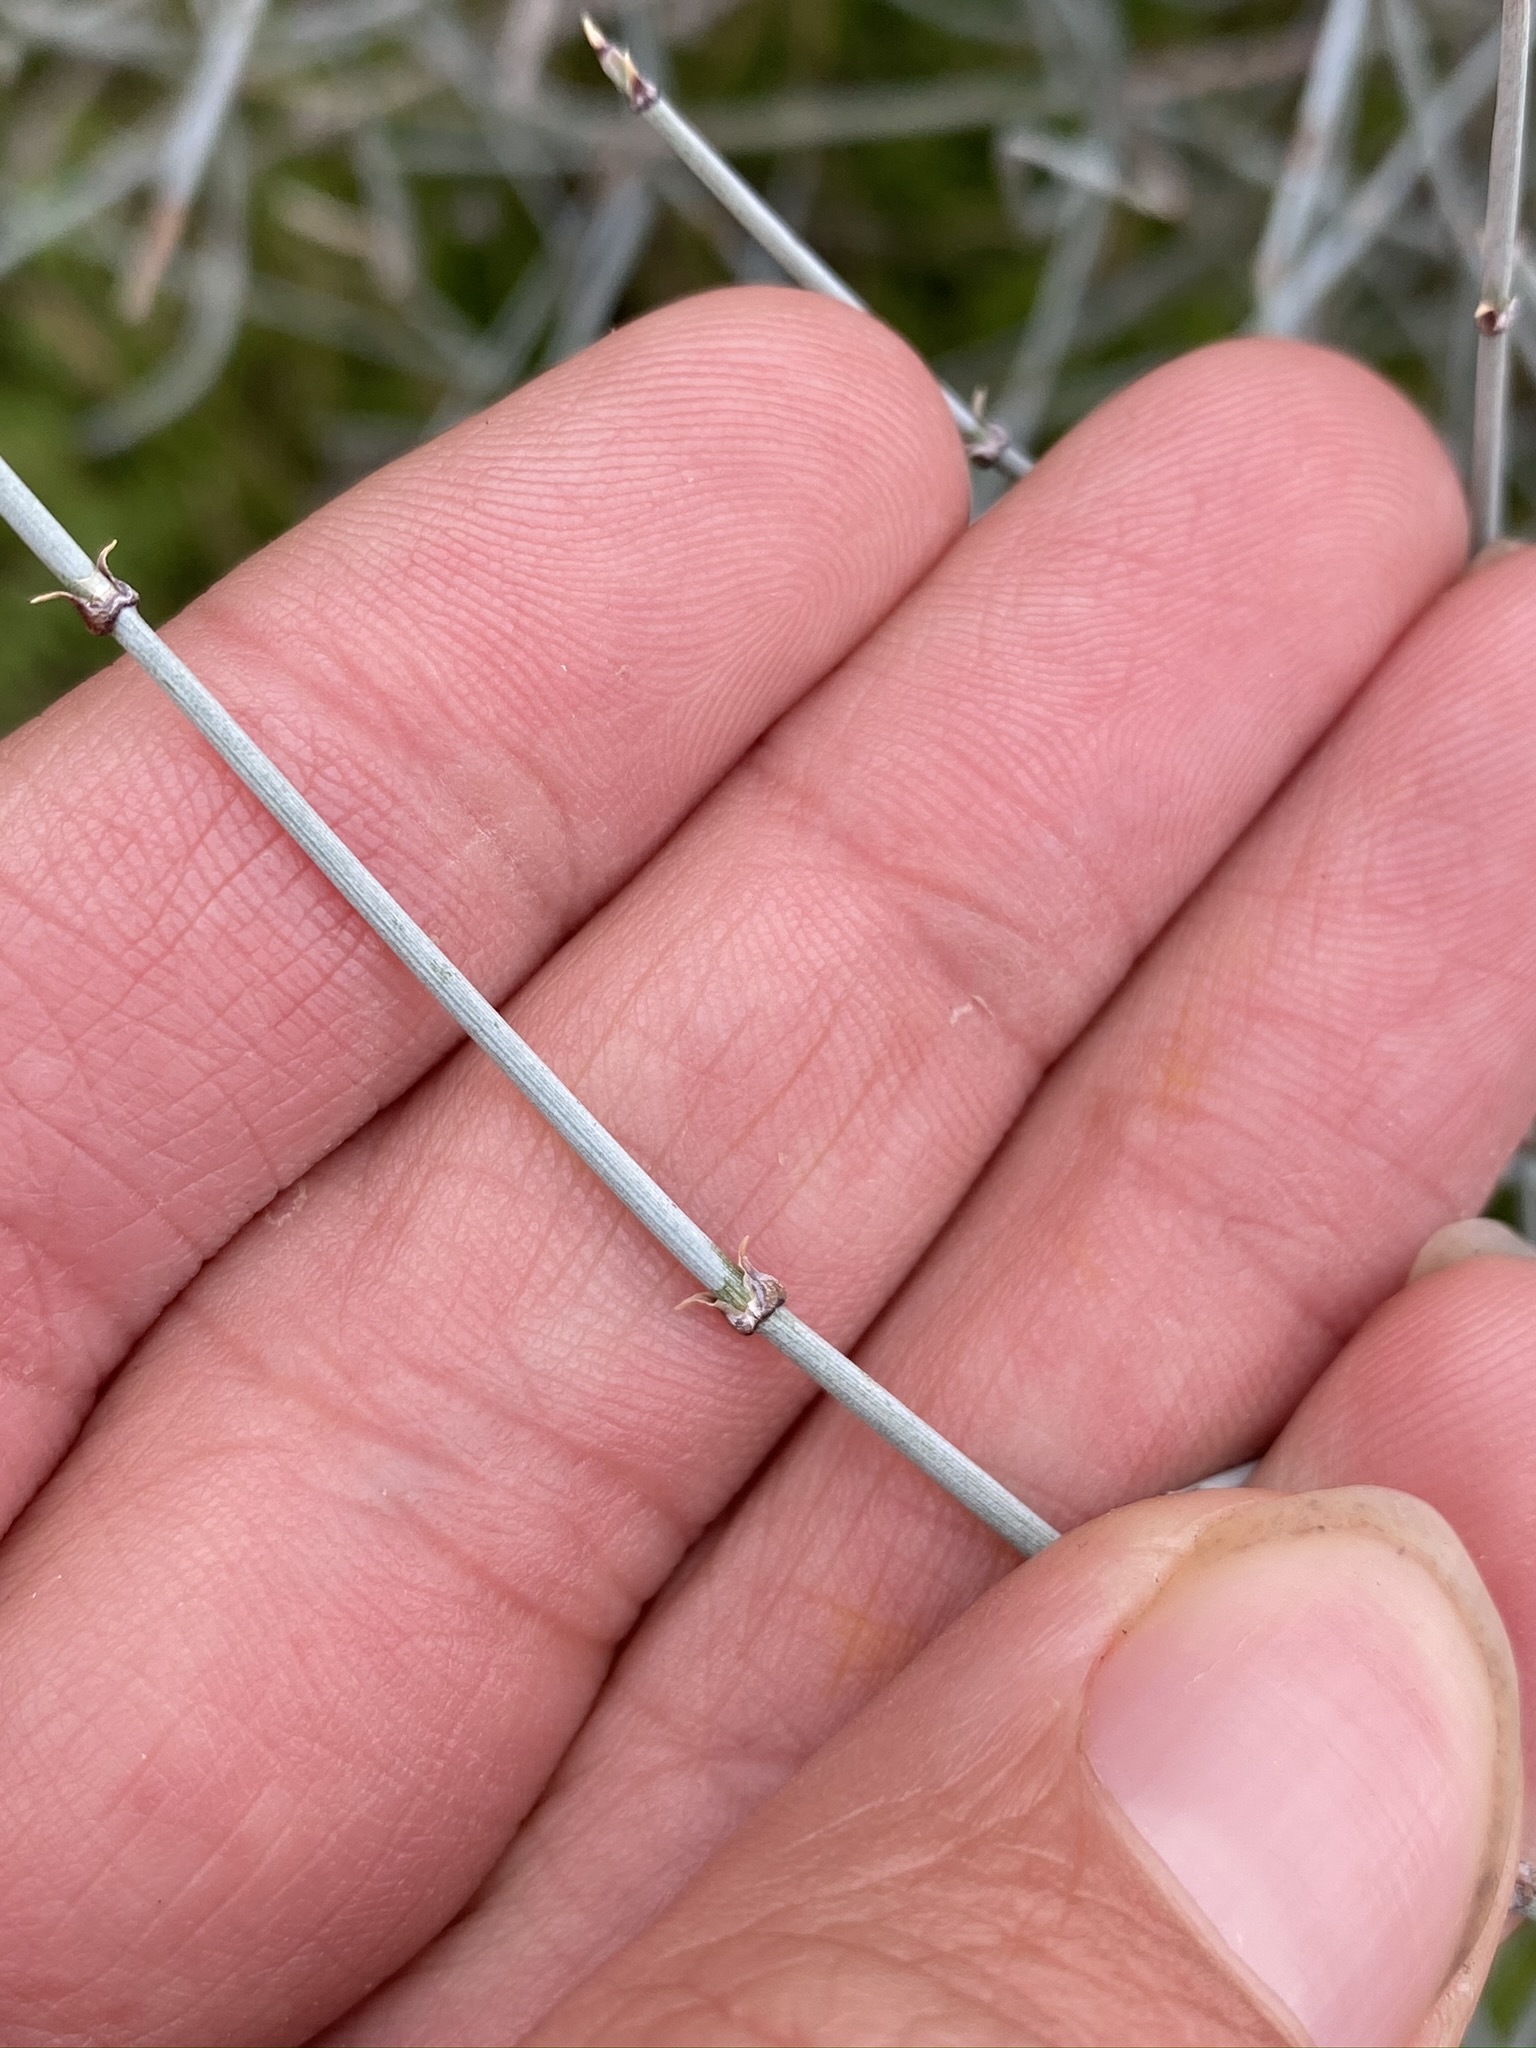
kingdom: Plantae
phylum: Tracheophyta
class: Gnetopsida
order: Ephedrales
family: Ephedraceae
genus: Ephedra
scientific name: Ephedra aspera
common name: Boundary ephedra
